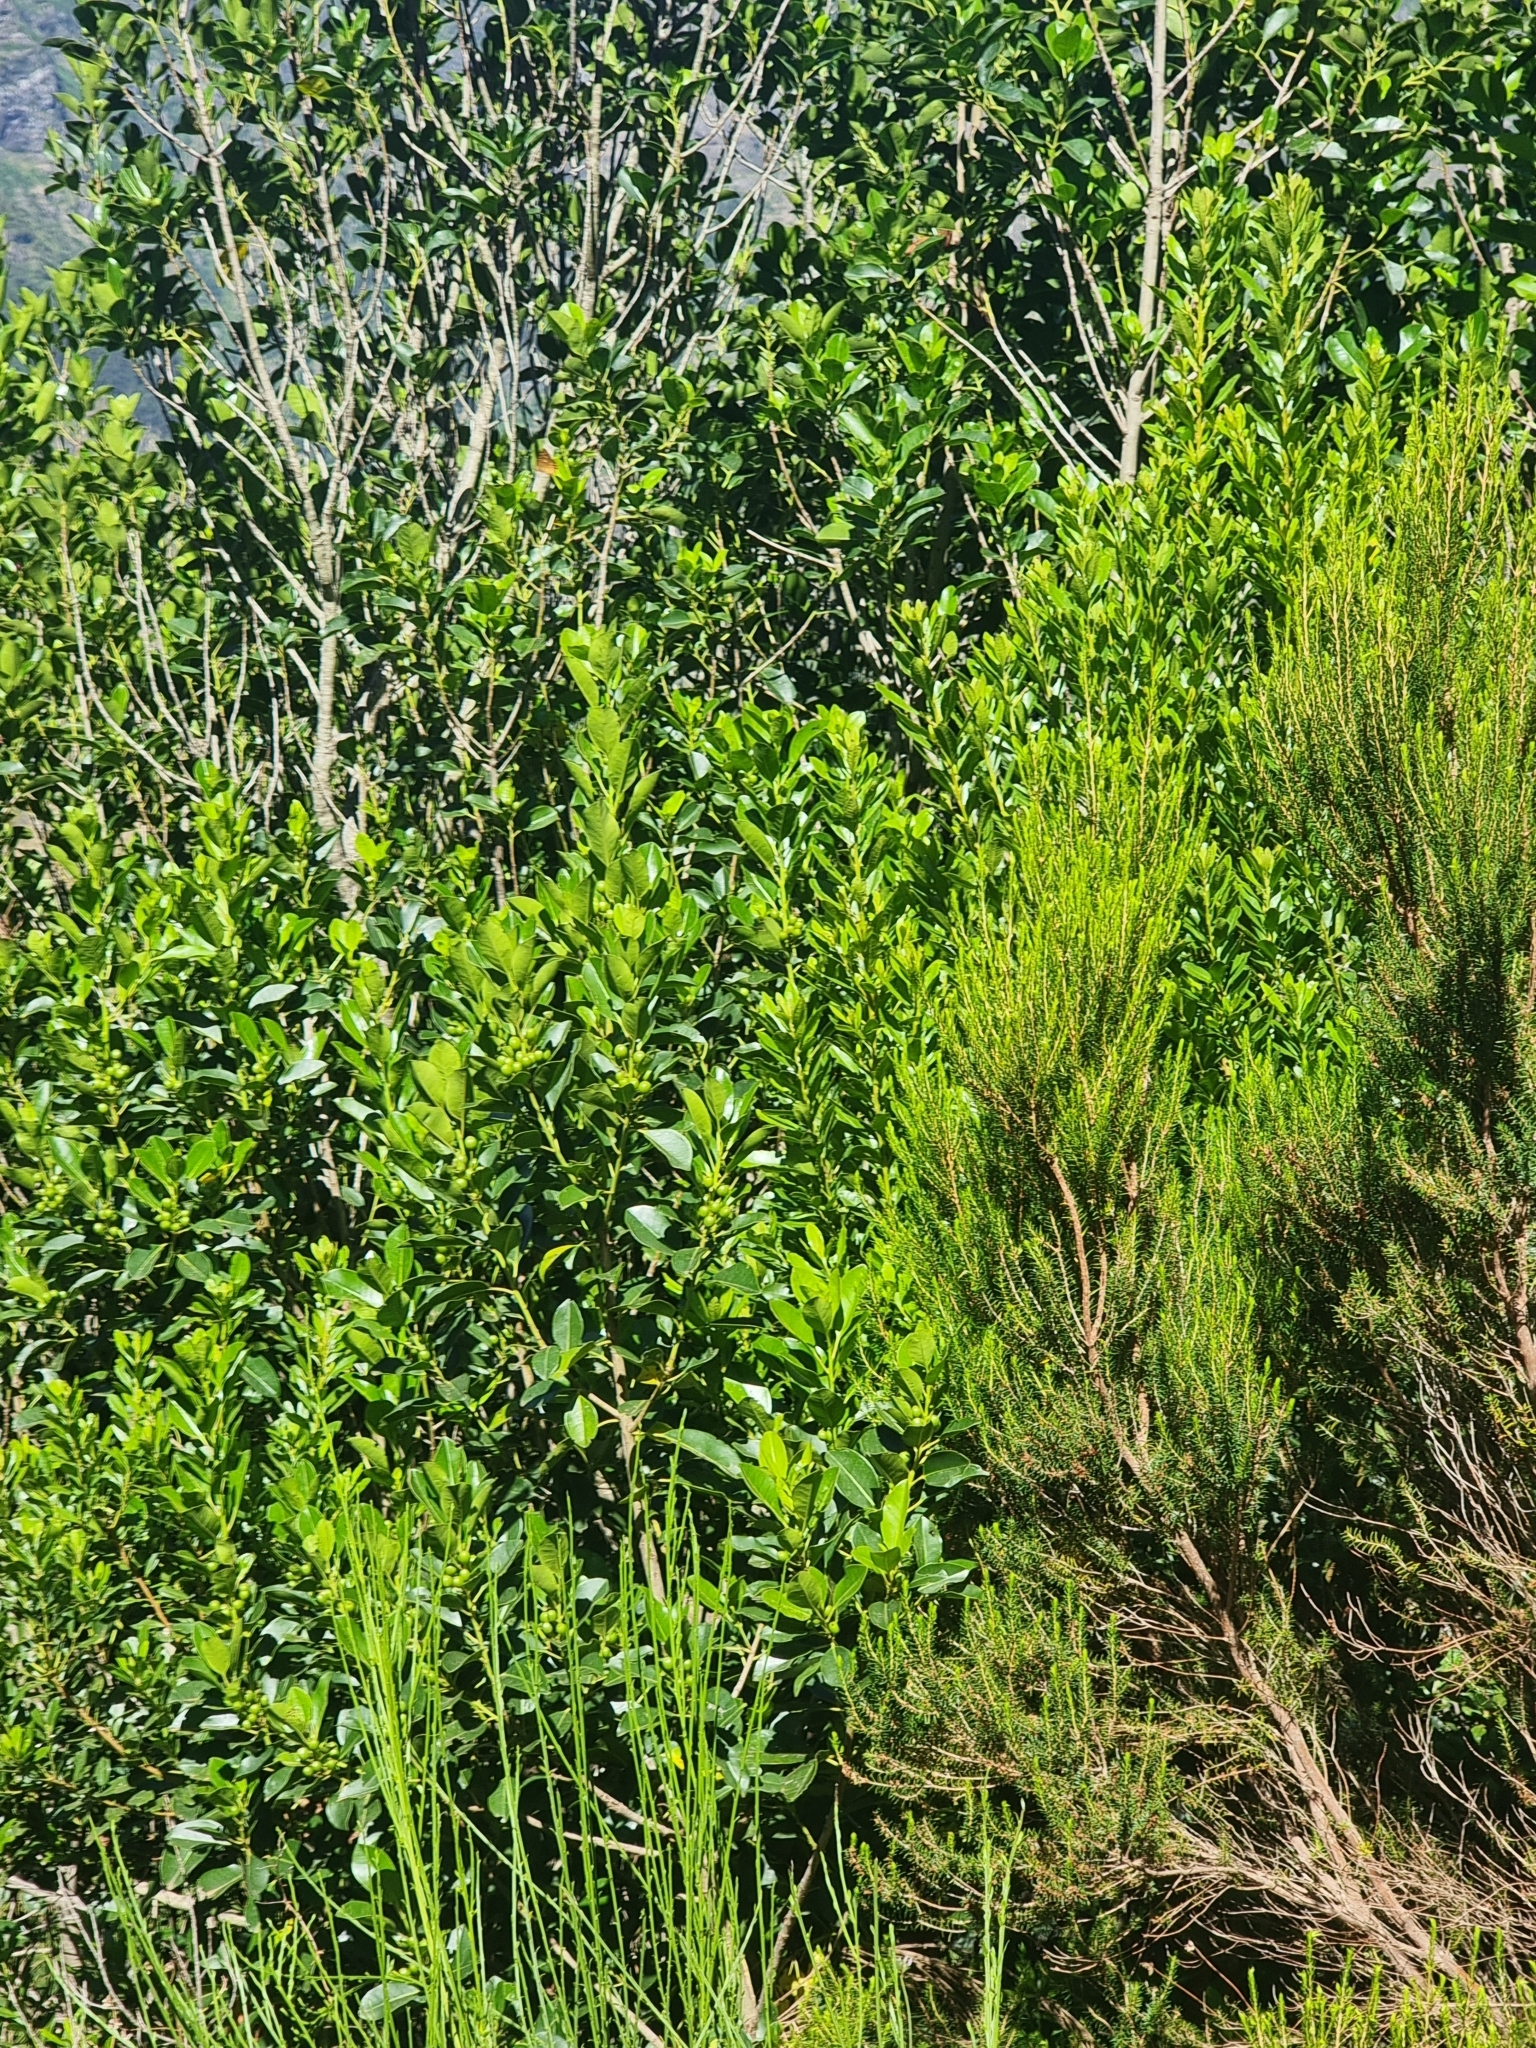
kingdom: Plantae
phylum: Tracheophyta
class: Magnoliopsida
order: Aquifoliales
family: Aquifoliaceae
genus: Ilex
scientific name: Ilex canariensis
